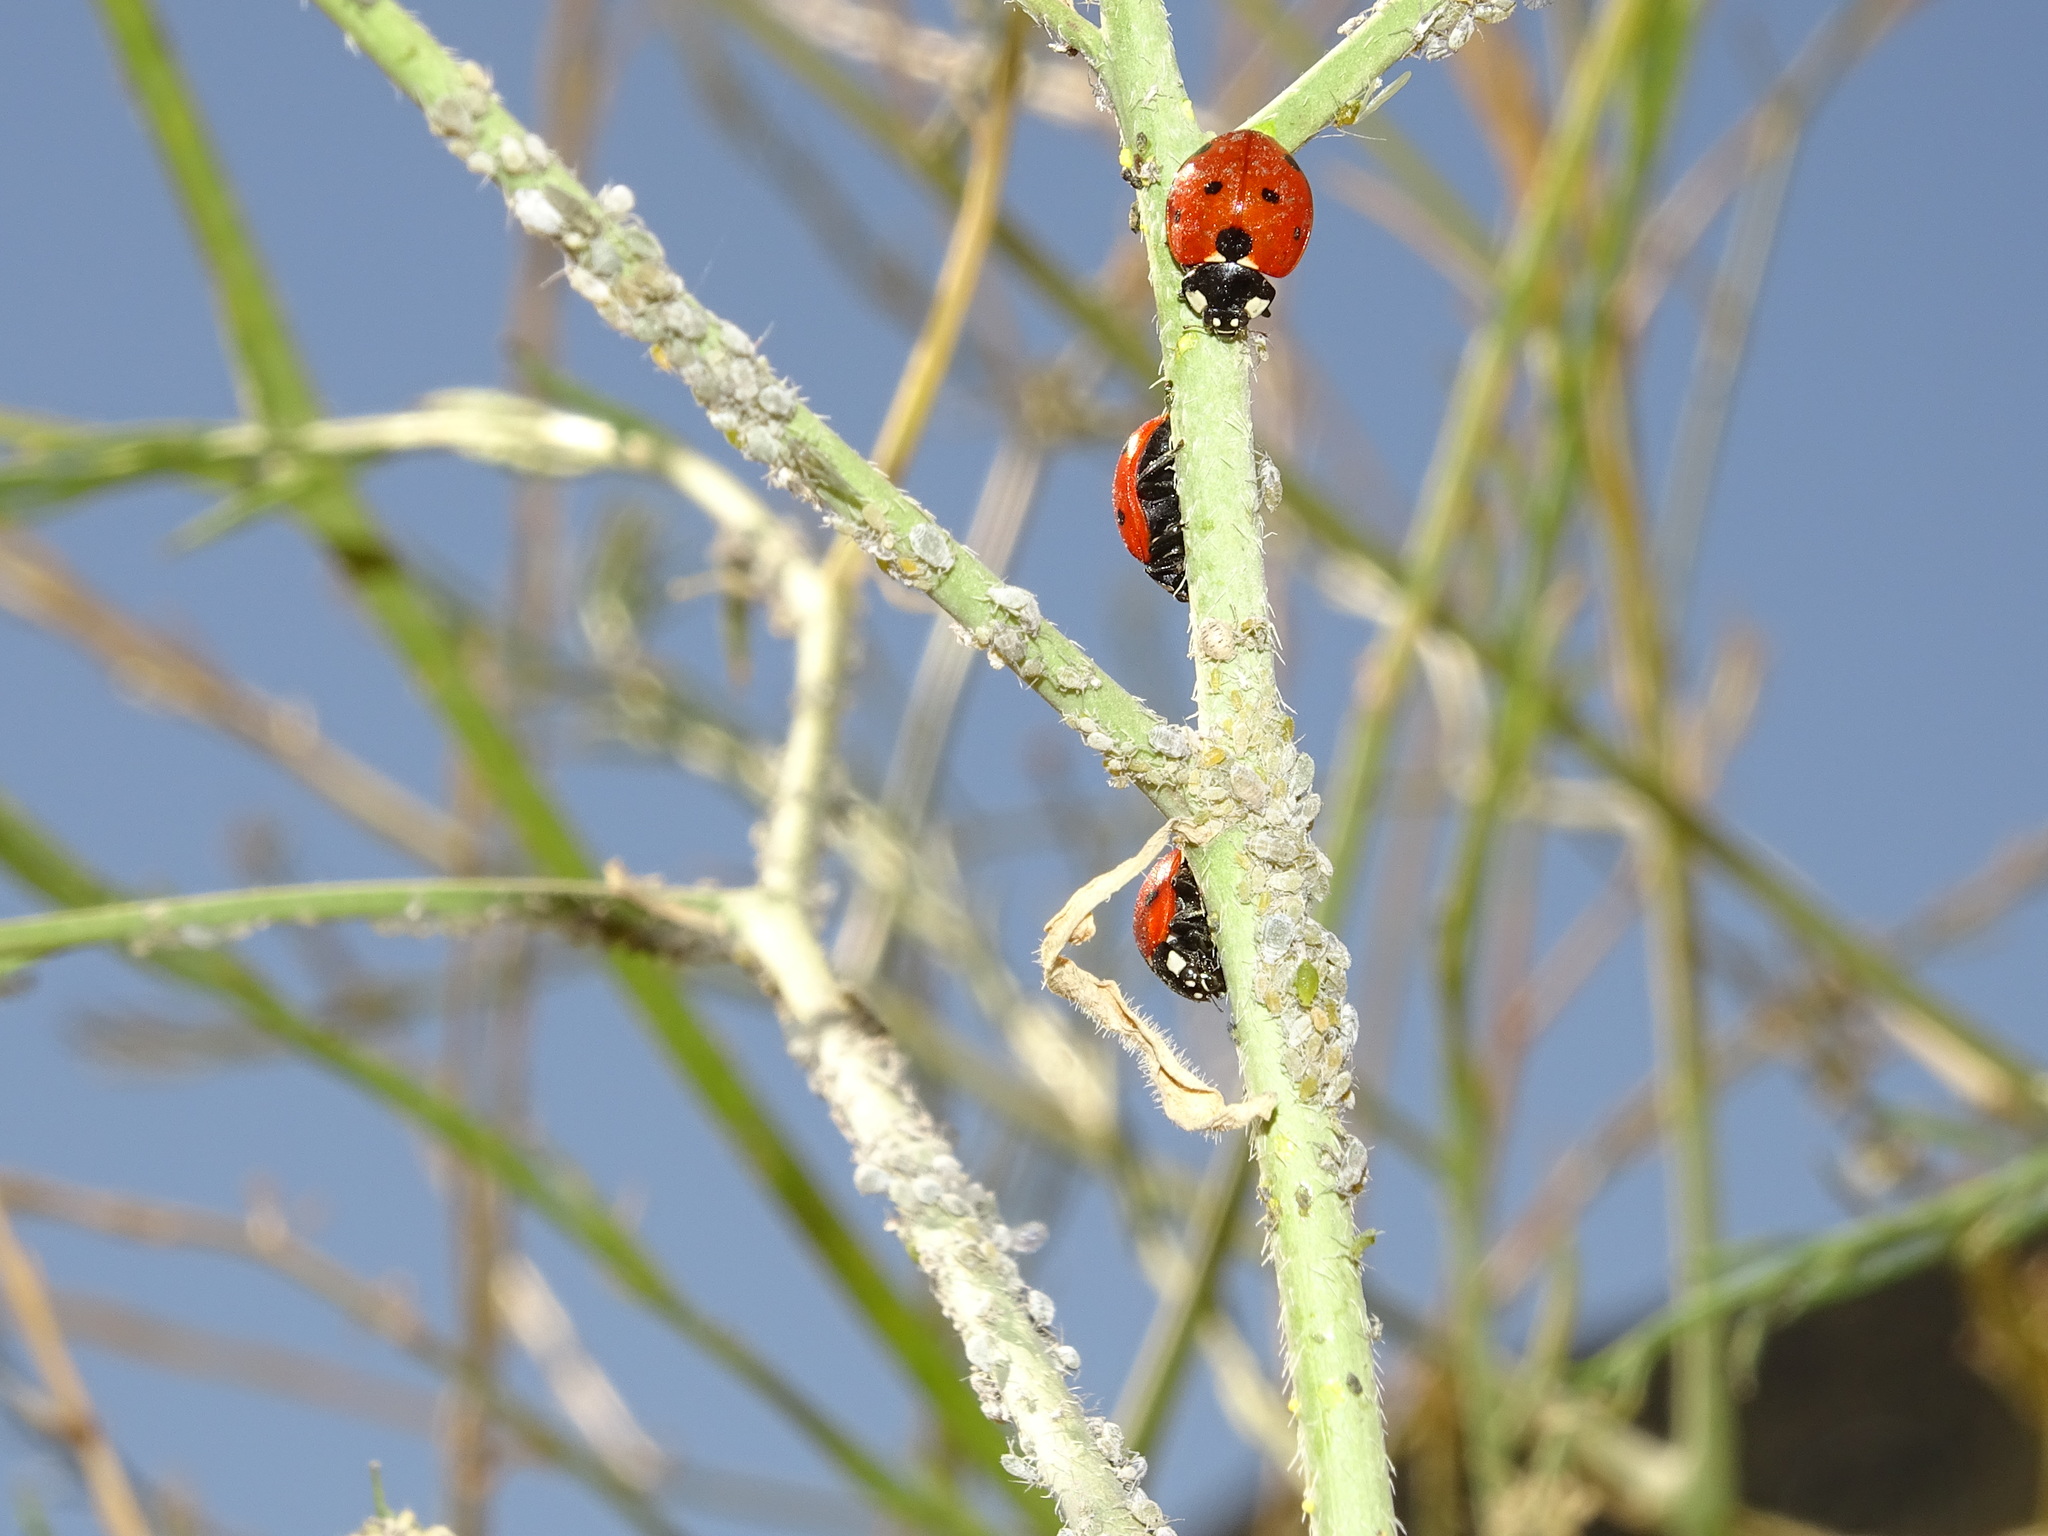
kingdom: Animalia
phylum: Arthropoda
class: Insecta
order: Hemiptera
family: Aphididae
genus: Brevicoryne
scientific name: Brevicoryne brassicae
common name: Cabbage aphid
